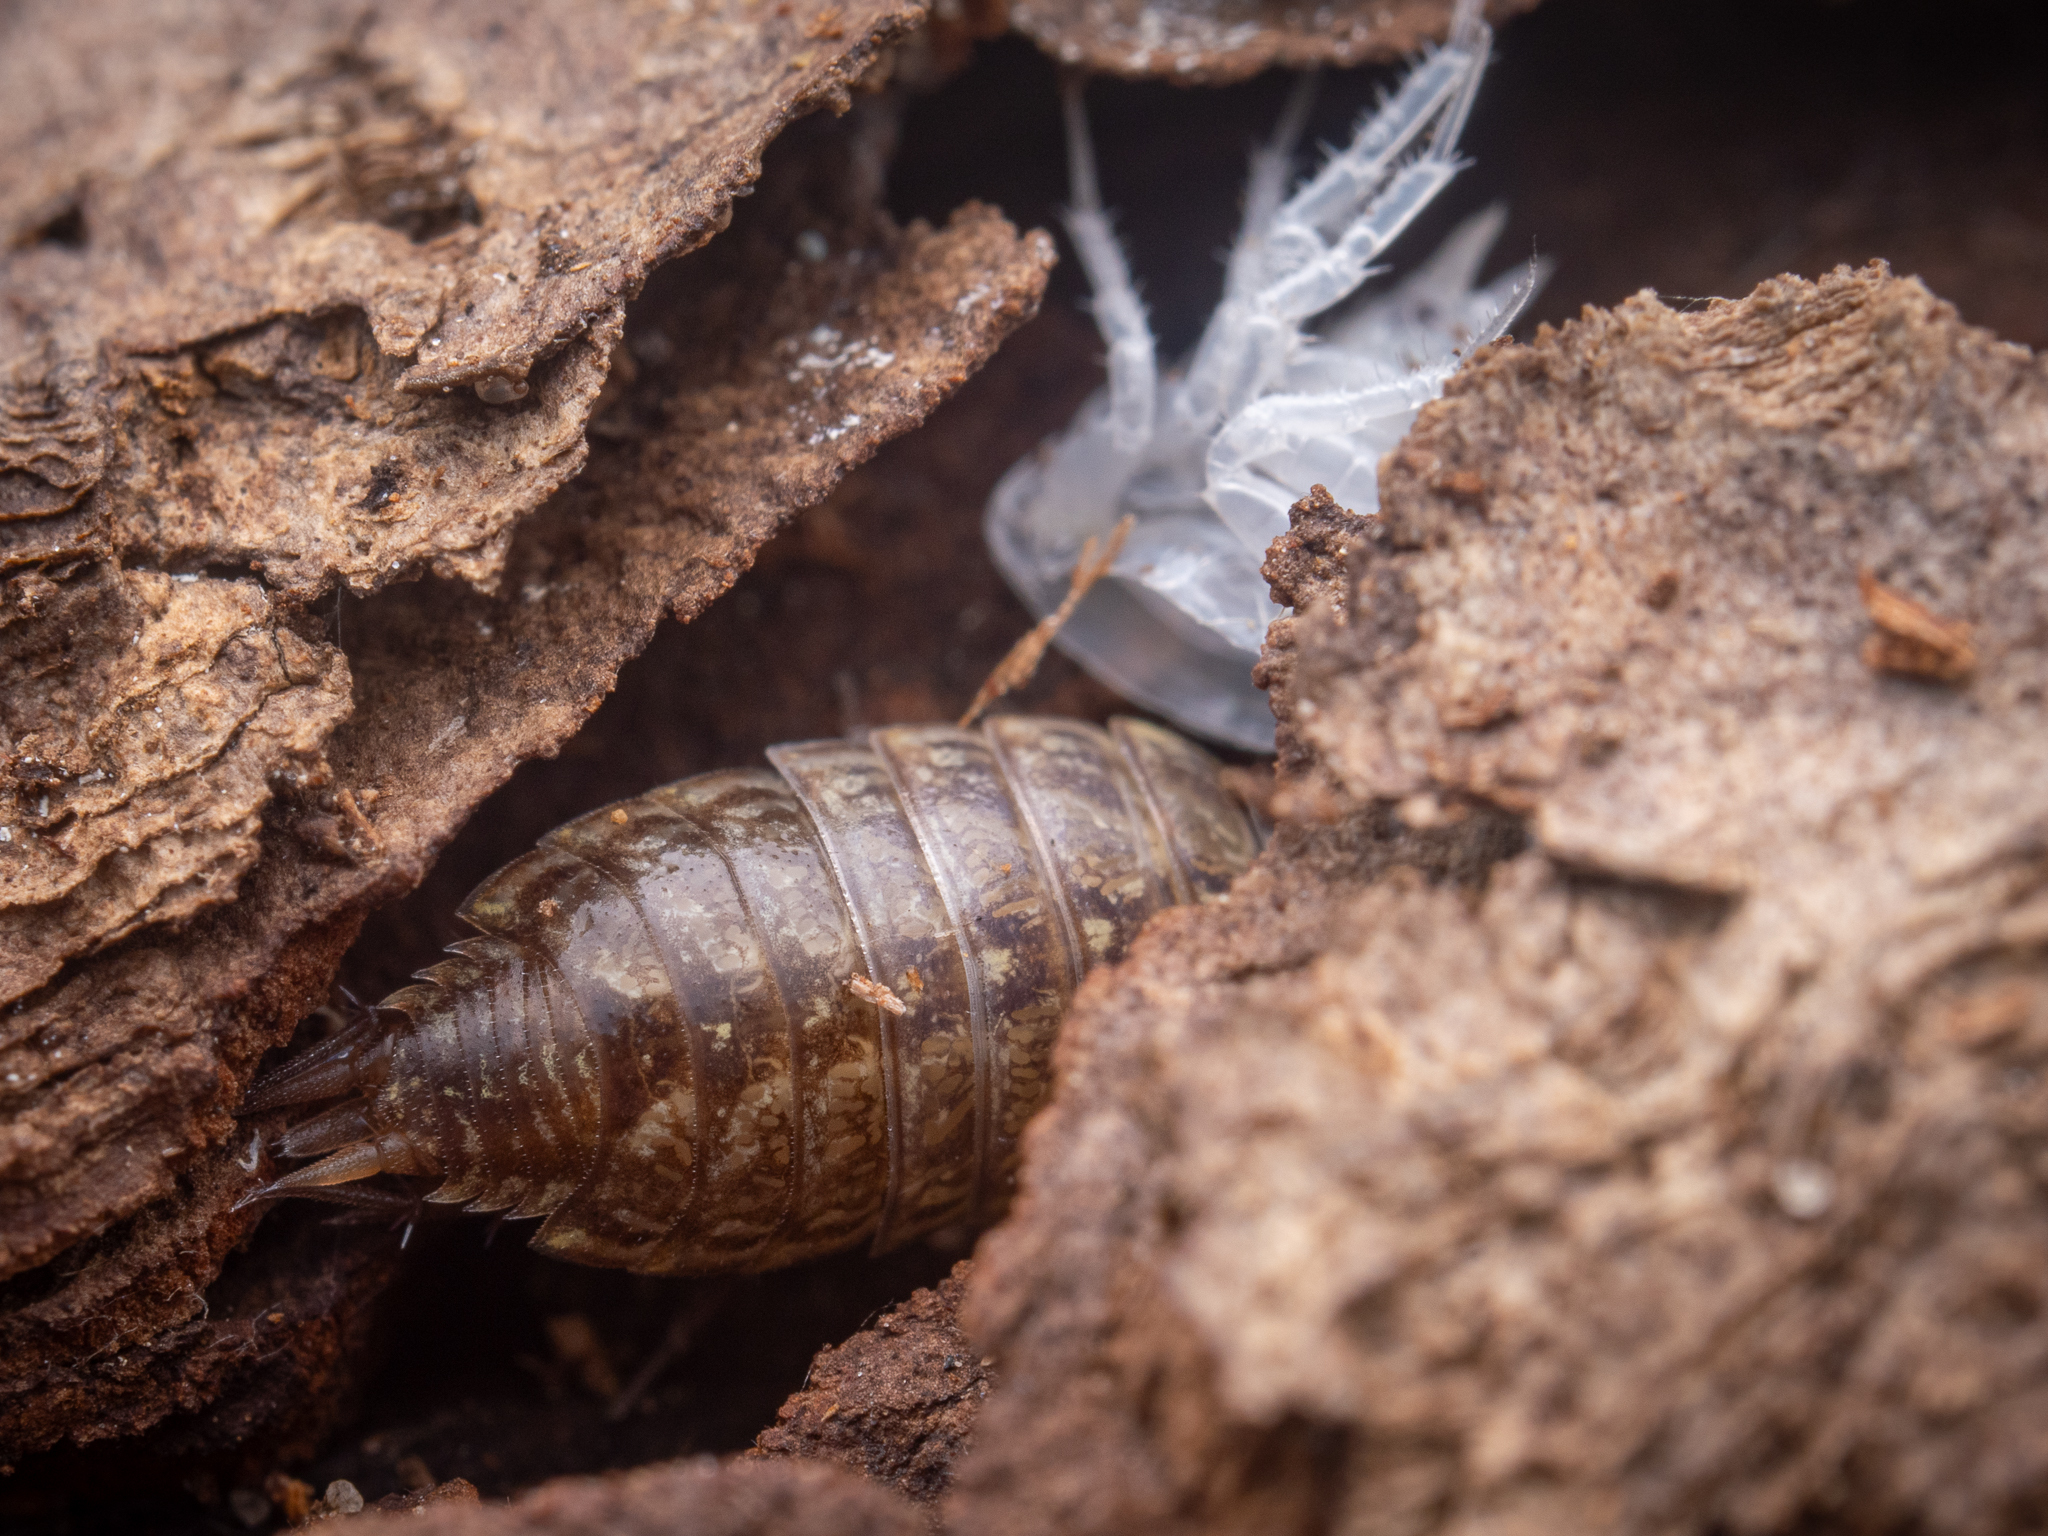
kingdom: Animalia
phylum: Arthropoda
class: Malacostraca
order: Isopoda
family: Philosciidae
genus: Philoscia
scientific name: Philoscia muscorum
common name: Common striped woodlouse
